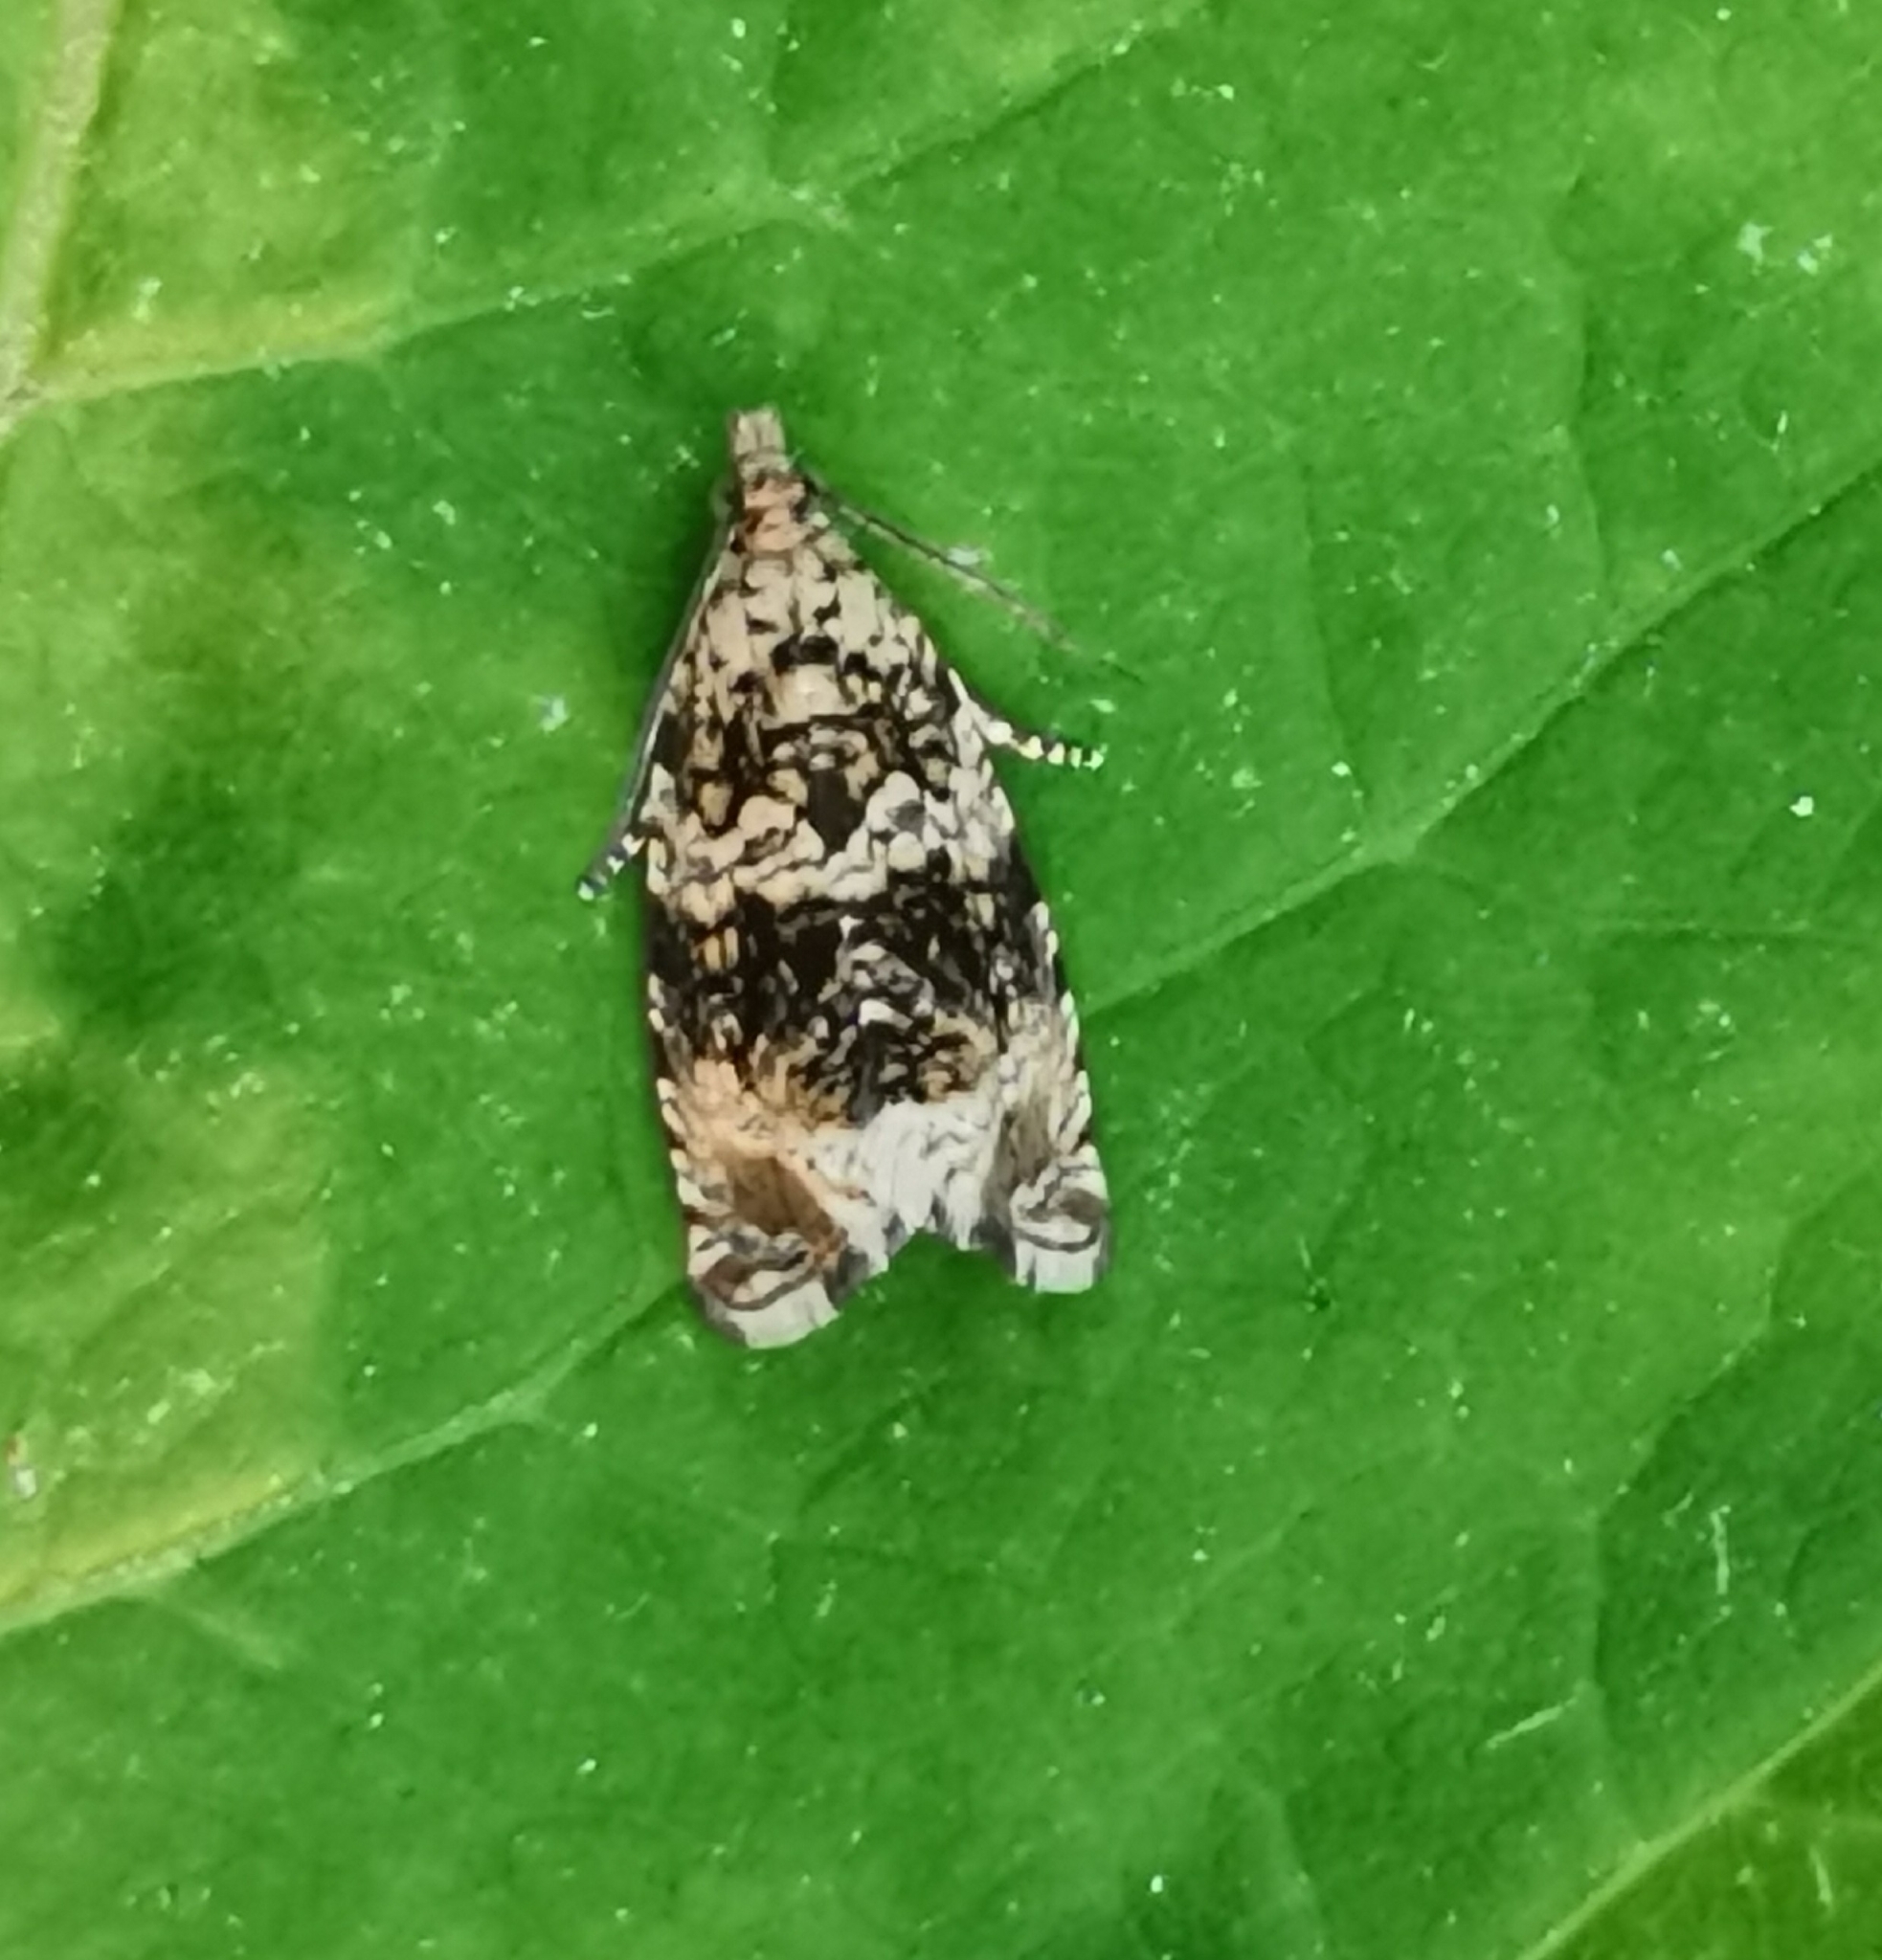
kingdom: Animalia
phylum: Arthropoda
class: Insecta
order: Lepidoptera
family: Tortricidae
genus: Syricoris
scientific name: Syricoris lacunana
